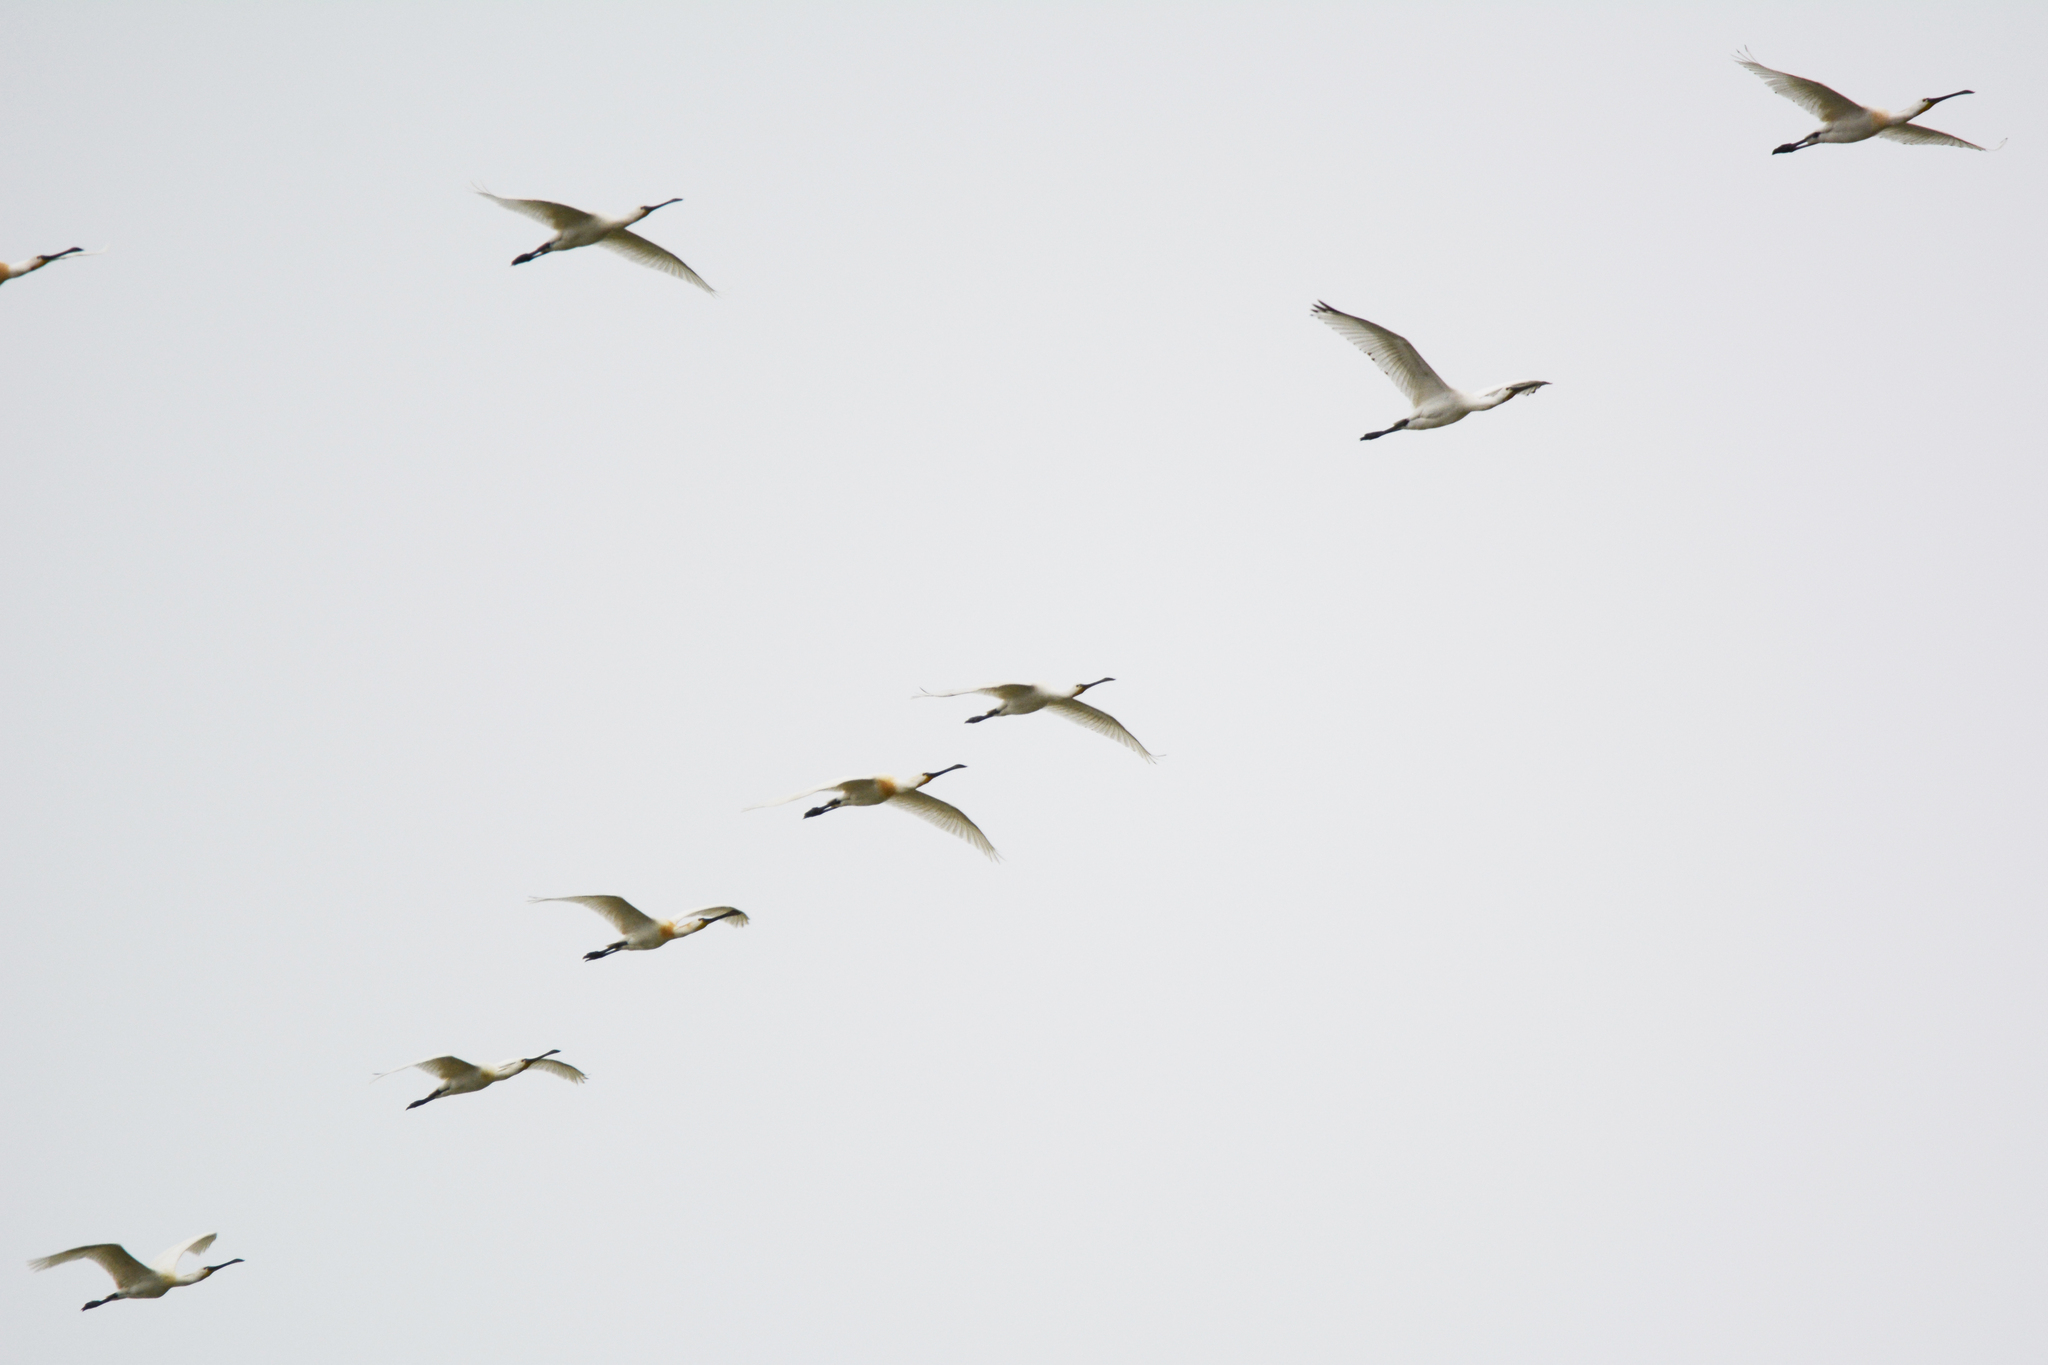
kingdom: Animalia
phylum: Chordata
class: Aves
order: Pelecaniformes
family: Threskiornithidae
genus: Platalea
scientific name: Platalea leucorodia
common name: Eurasian spoonbill
